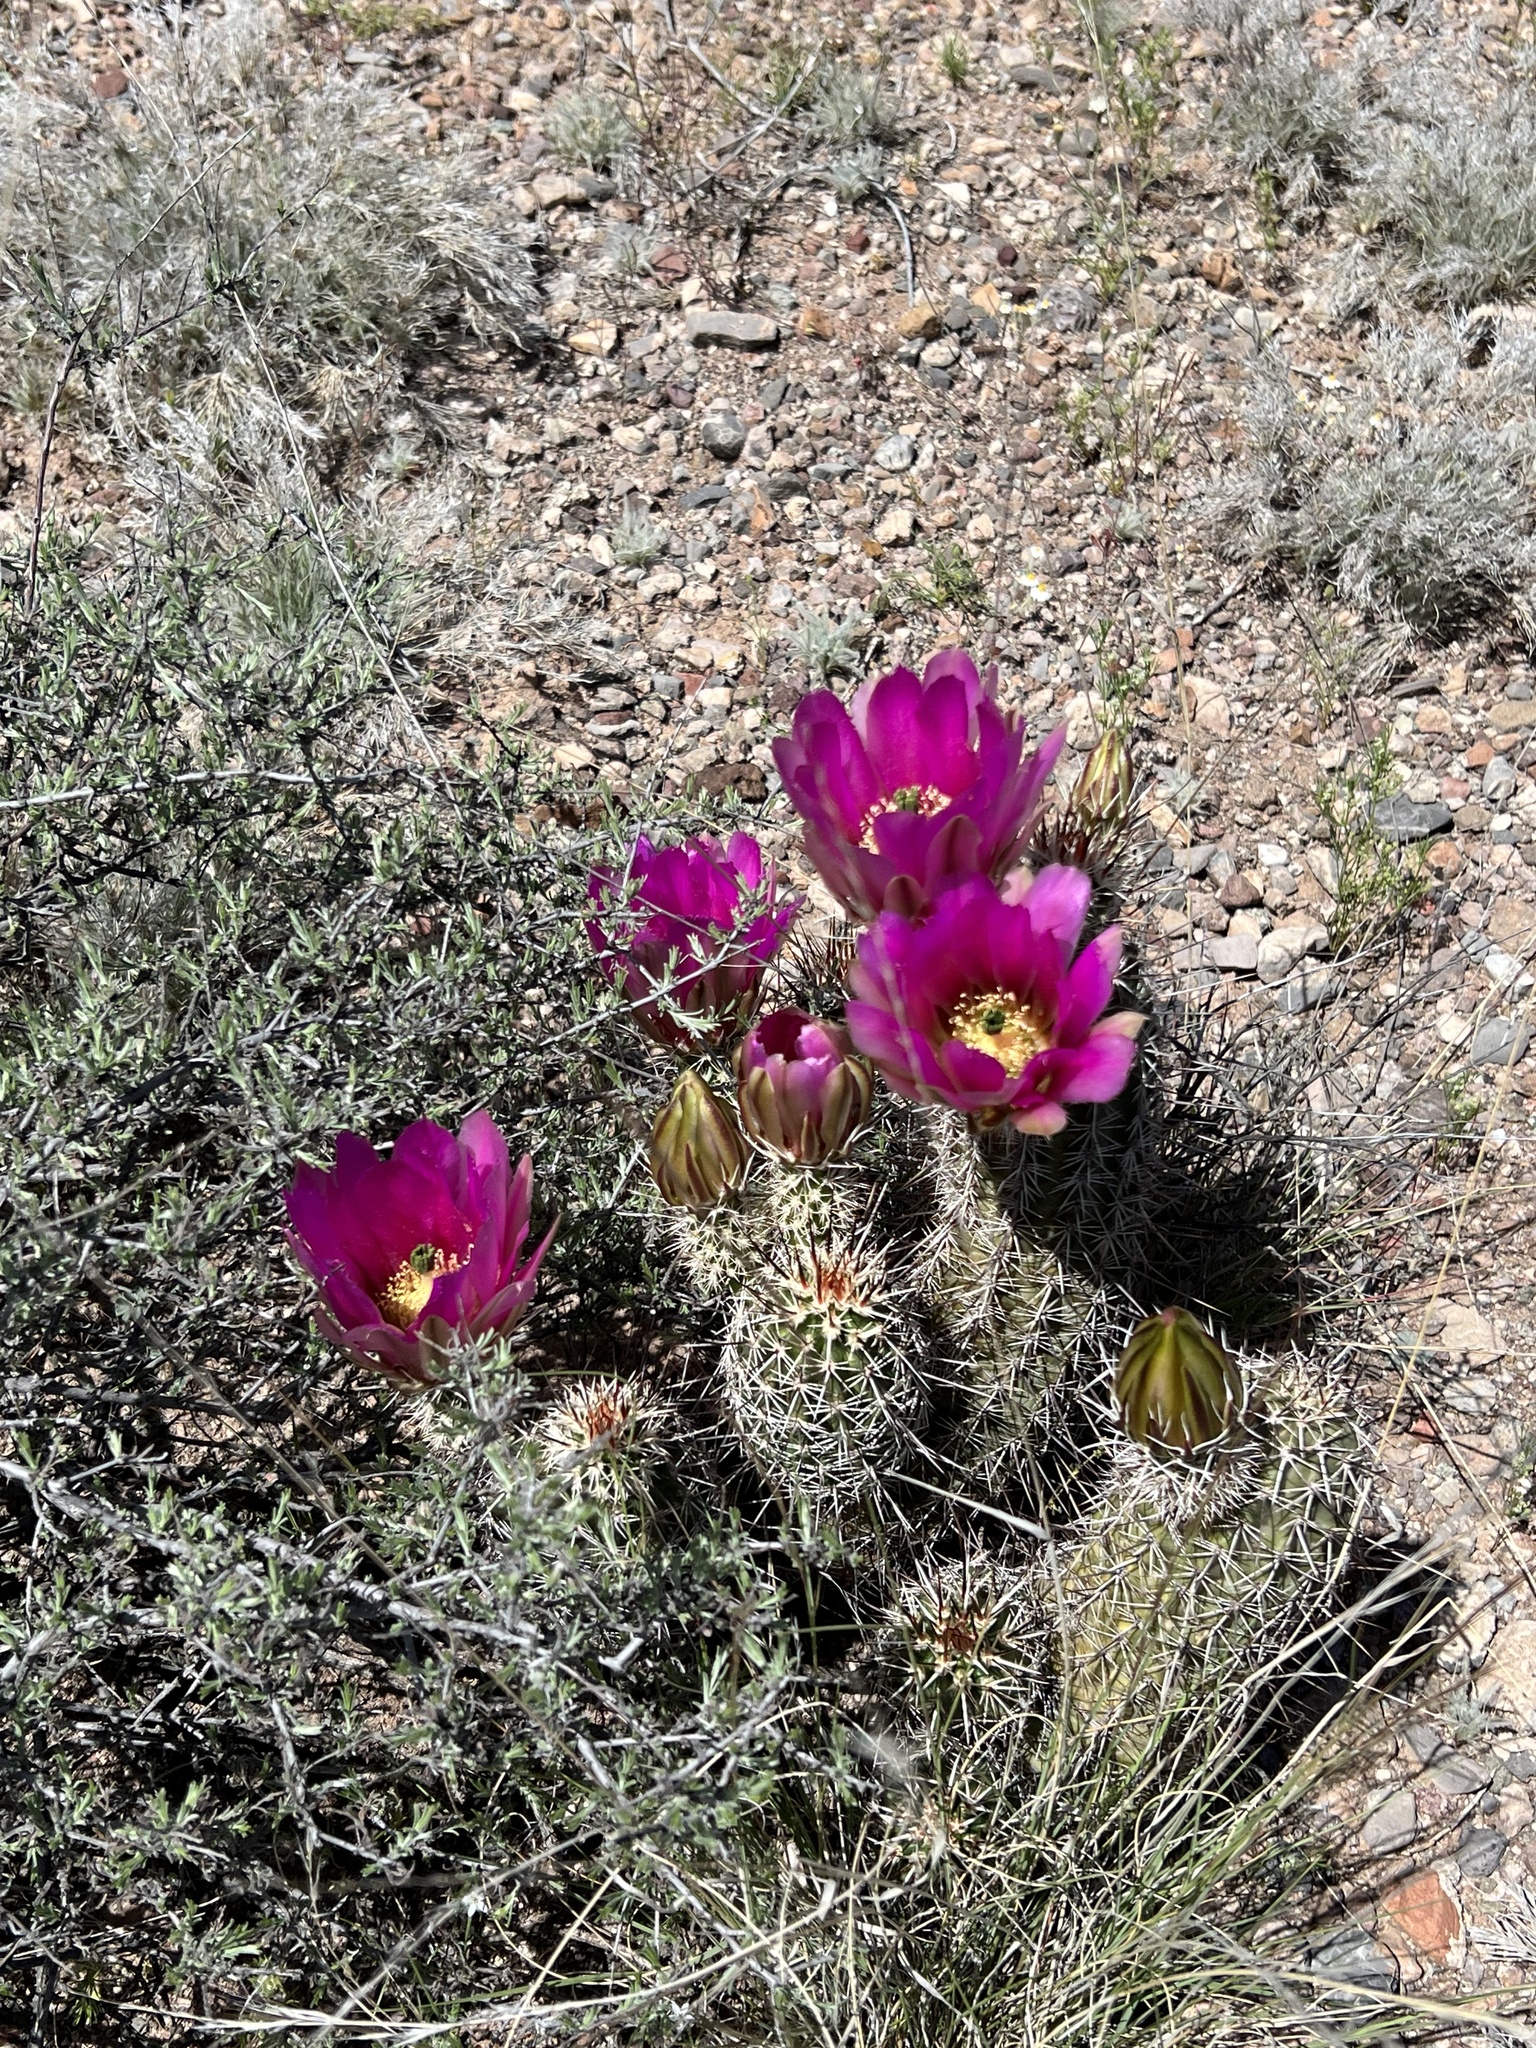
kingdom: Plantae
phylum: Tracheophyta
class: Magnoliopsida
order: Caryophyllales
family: Cactaceae
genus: Echinocereus
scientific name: Echinocereus fasciculatus
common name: Bundle hedgehog
